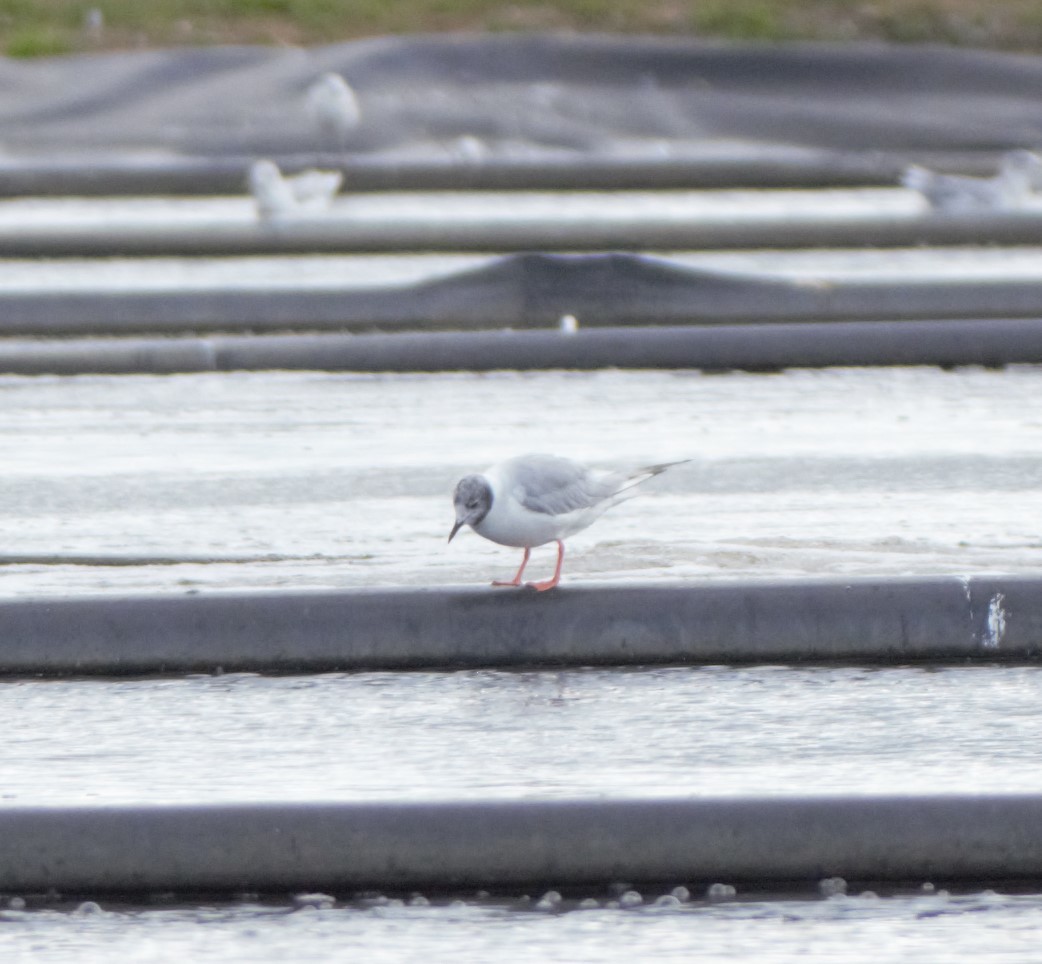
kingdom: Animalia
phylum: Chordata
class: Aves
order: Charadriiformes
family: Laridae
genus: Chroicocephalus
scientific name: Chroicocephalus philadelphia
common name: Bonaparte's gull
